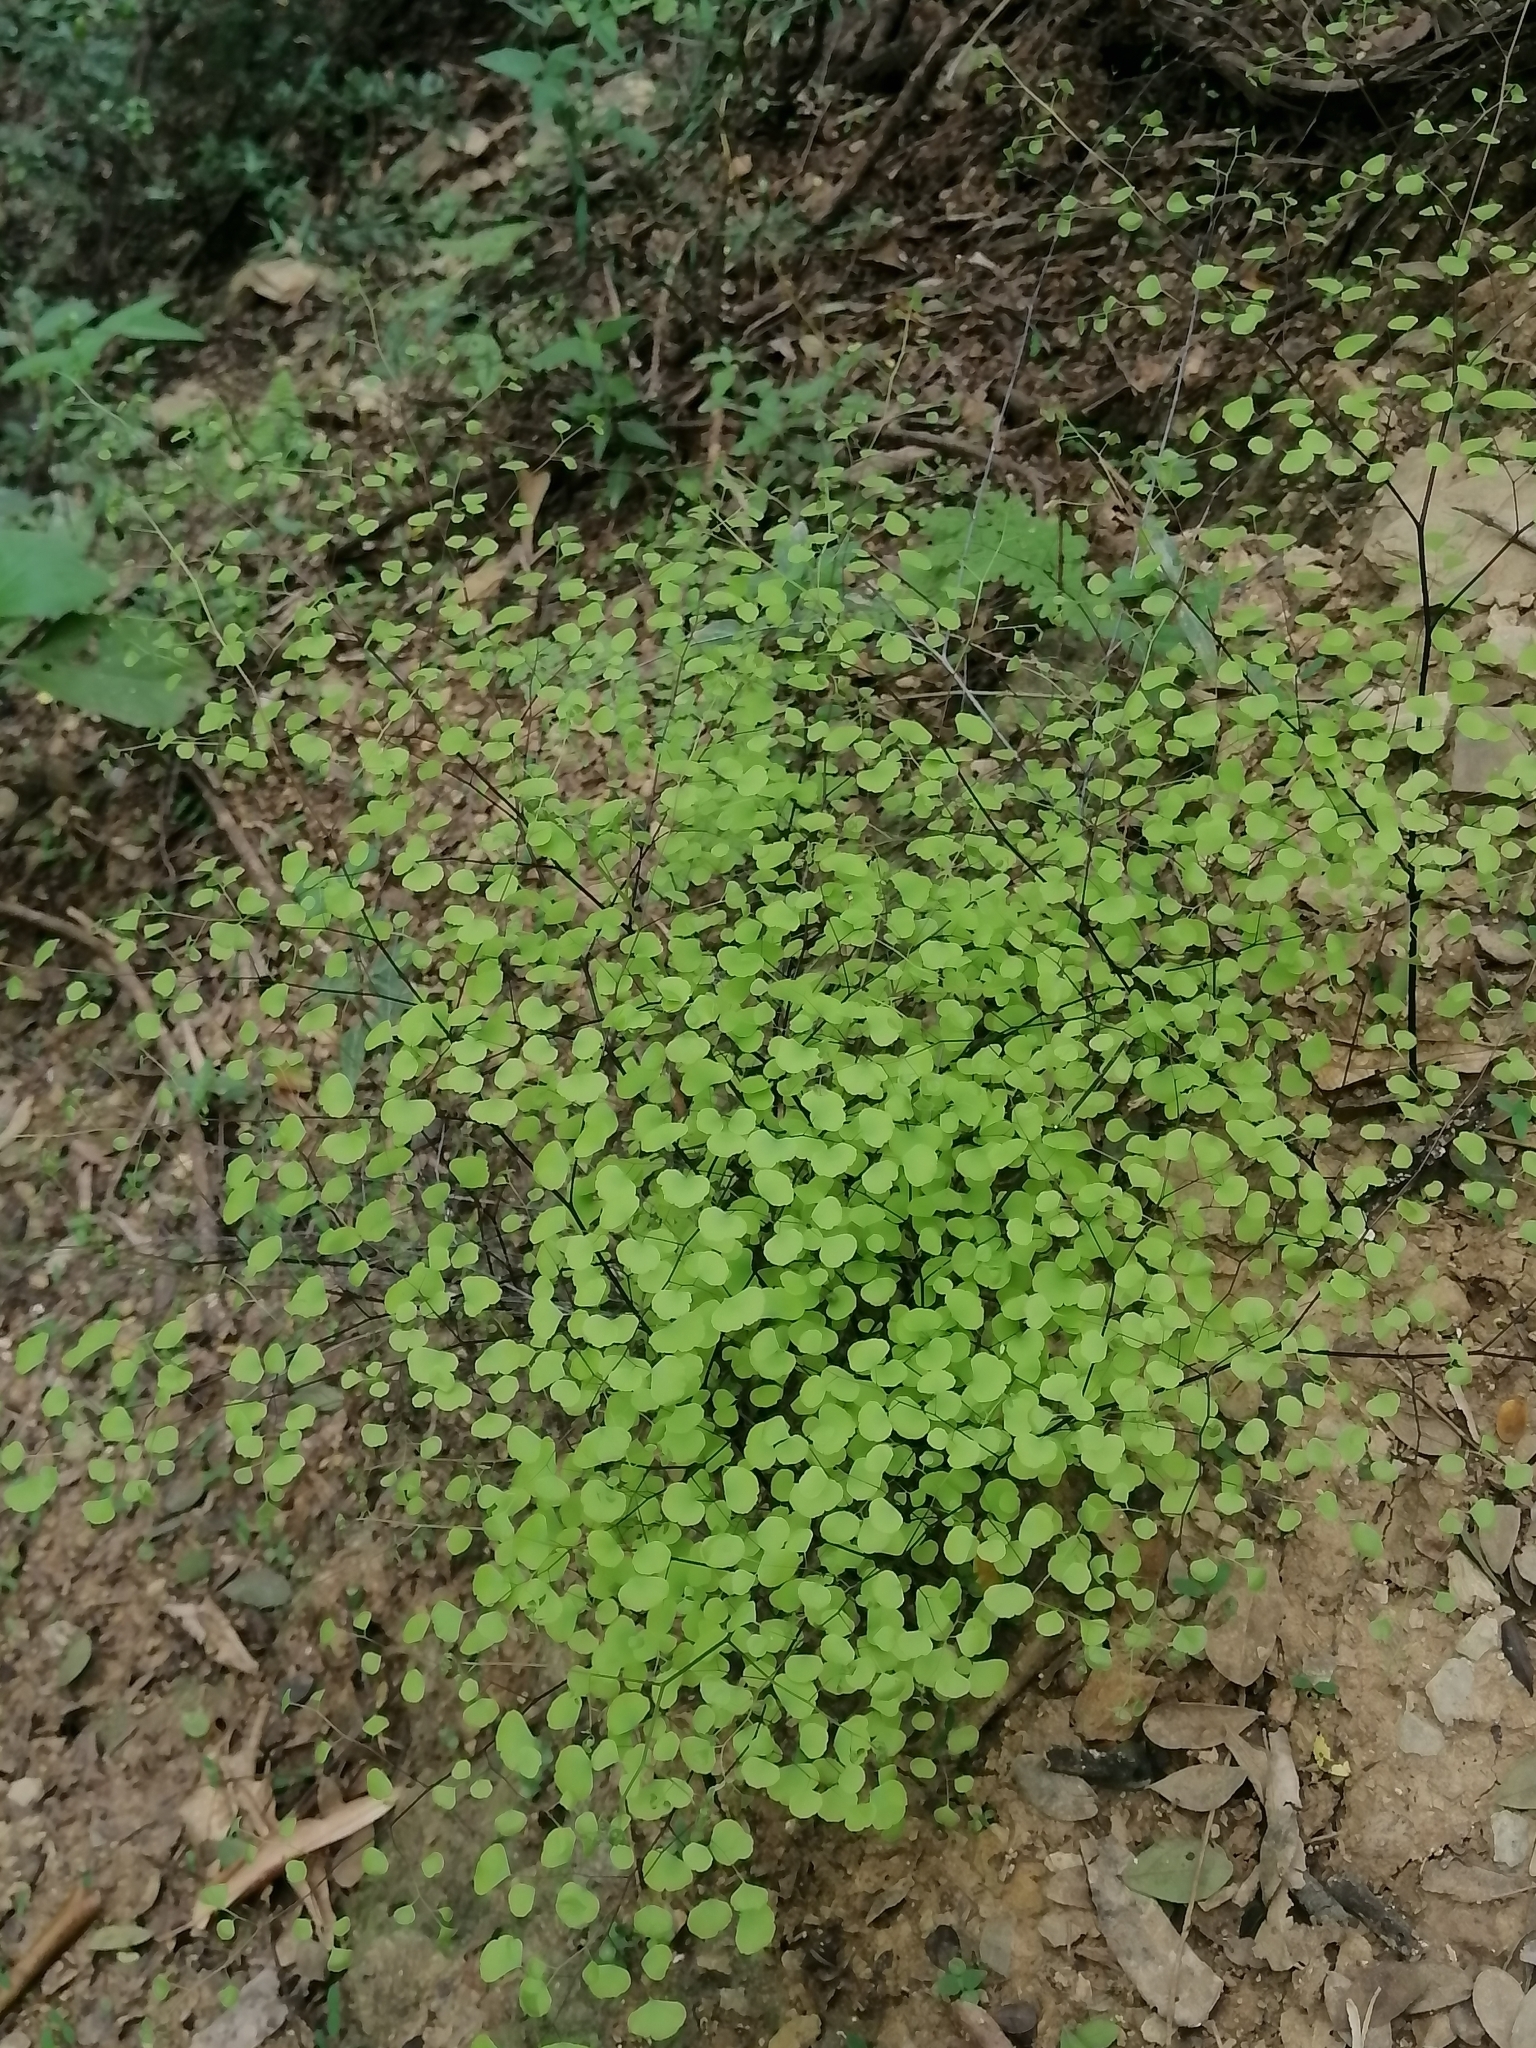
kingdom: Plantae
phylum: Tracheophyta
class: Polypodiopsida
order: Polypodiales
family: Pteridaceae
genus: Adiantum
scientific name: Adiantum tricholepis
